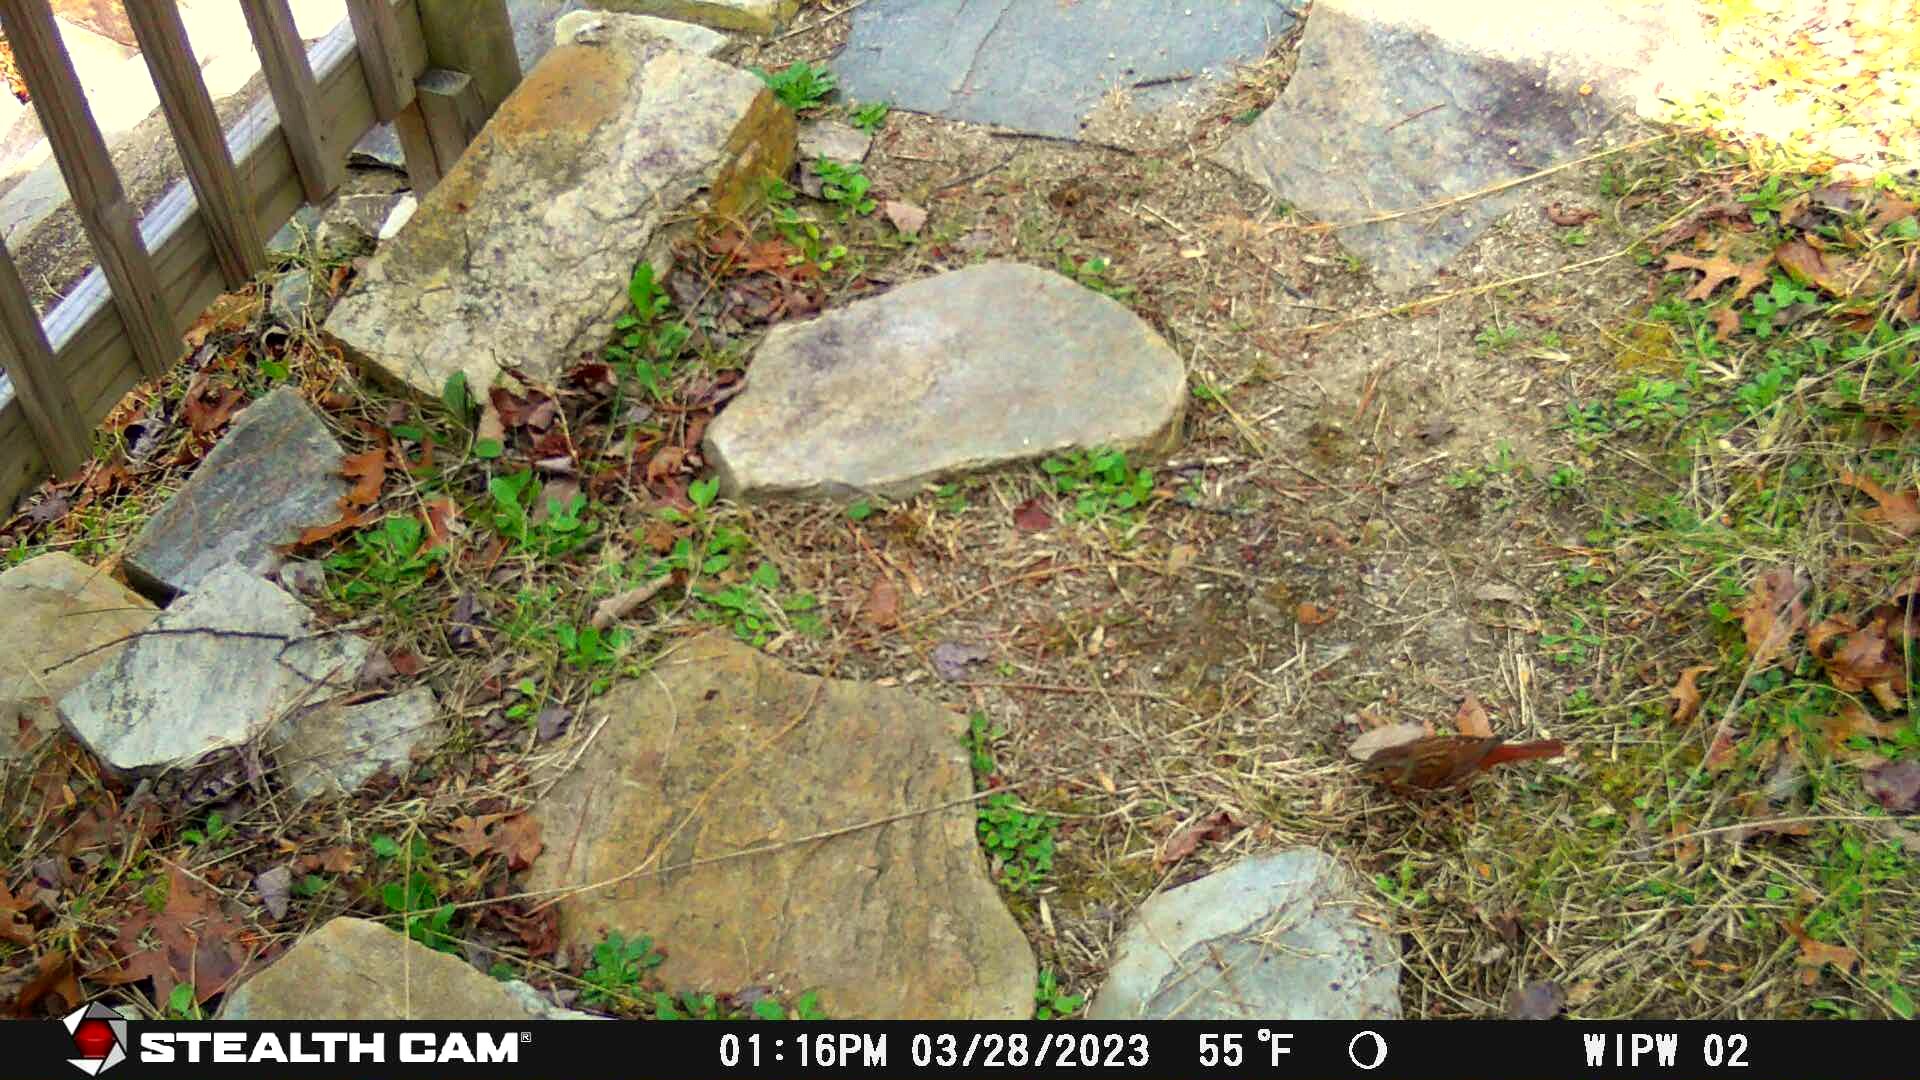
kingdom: Animalia
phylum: Chordata
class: Aves
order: Passeriformes
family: Passerellidae
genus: Passerella
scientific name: Passerella iliaca
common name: Fox sparrow
